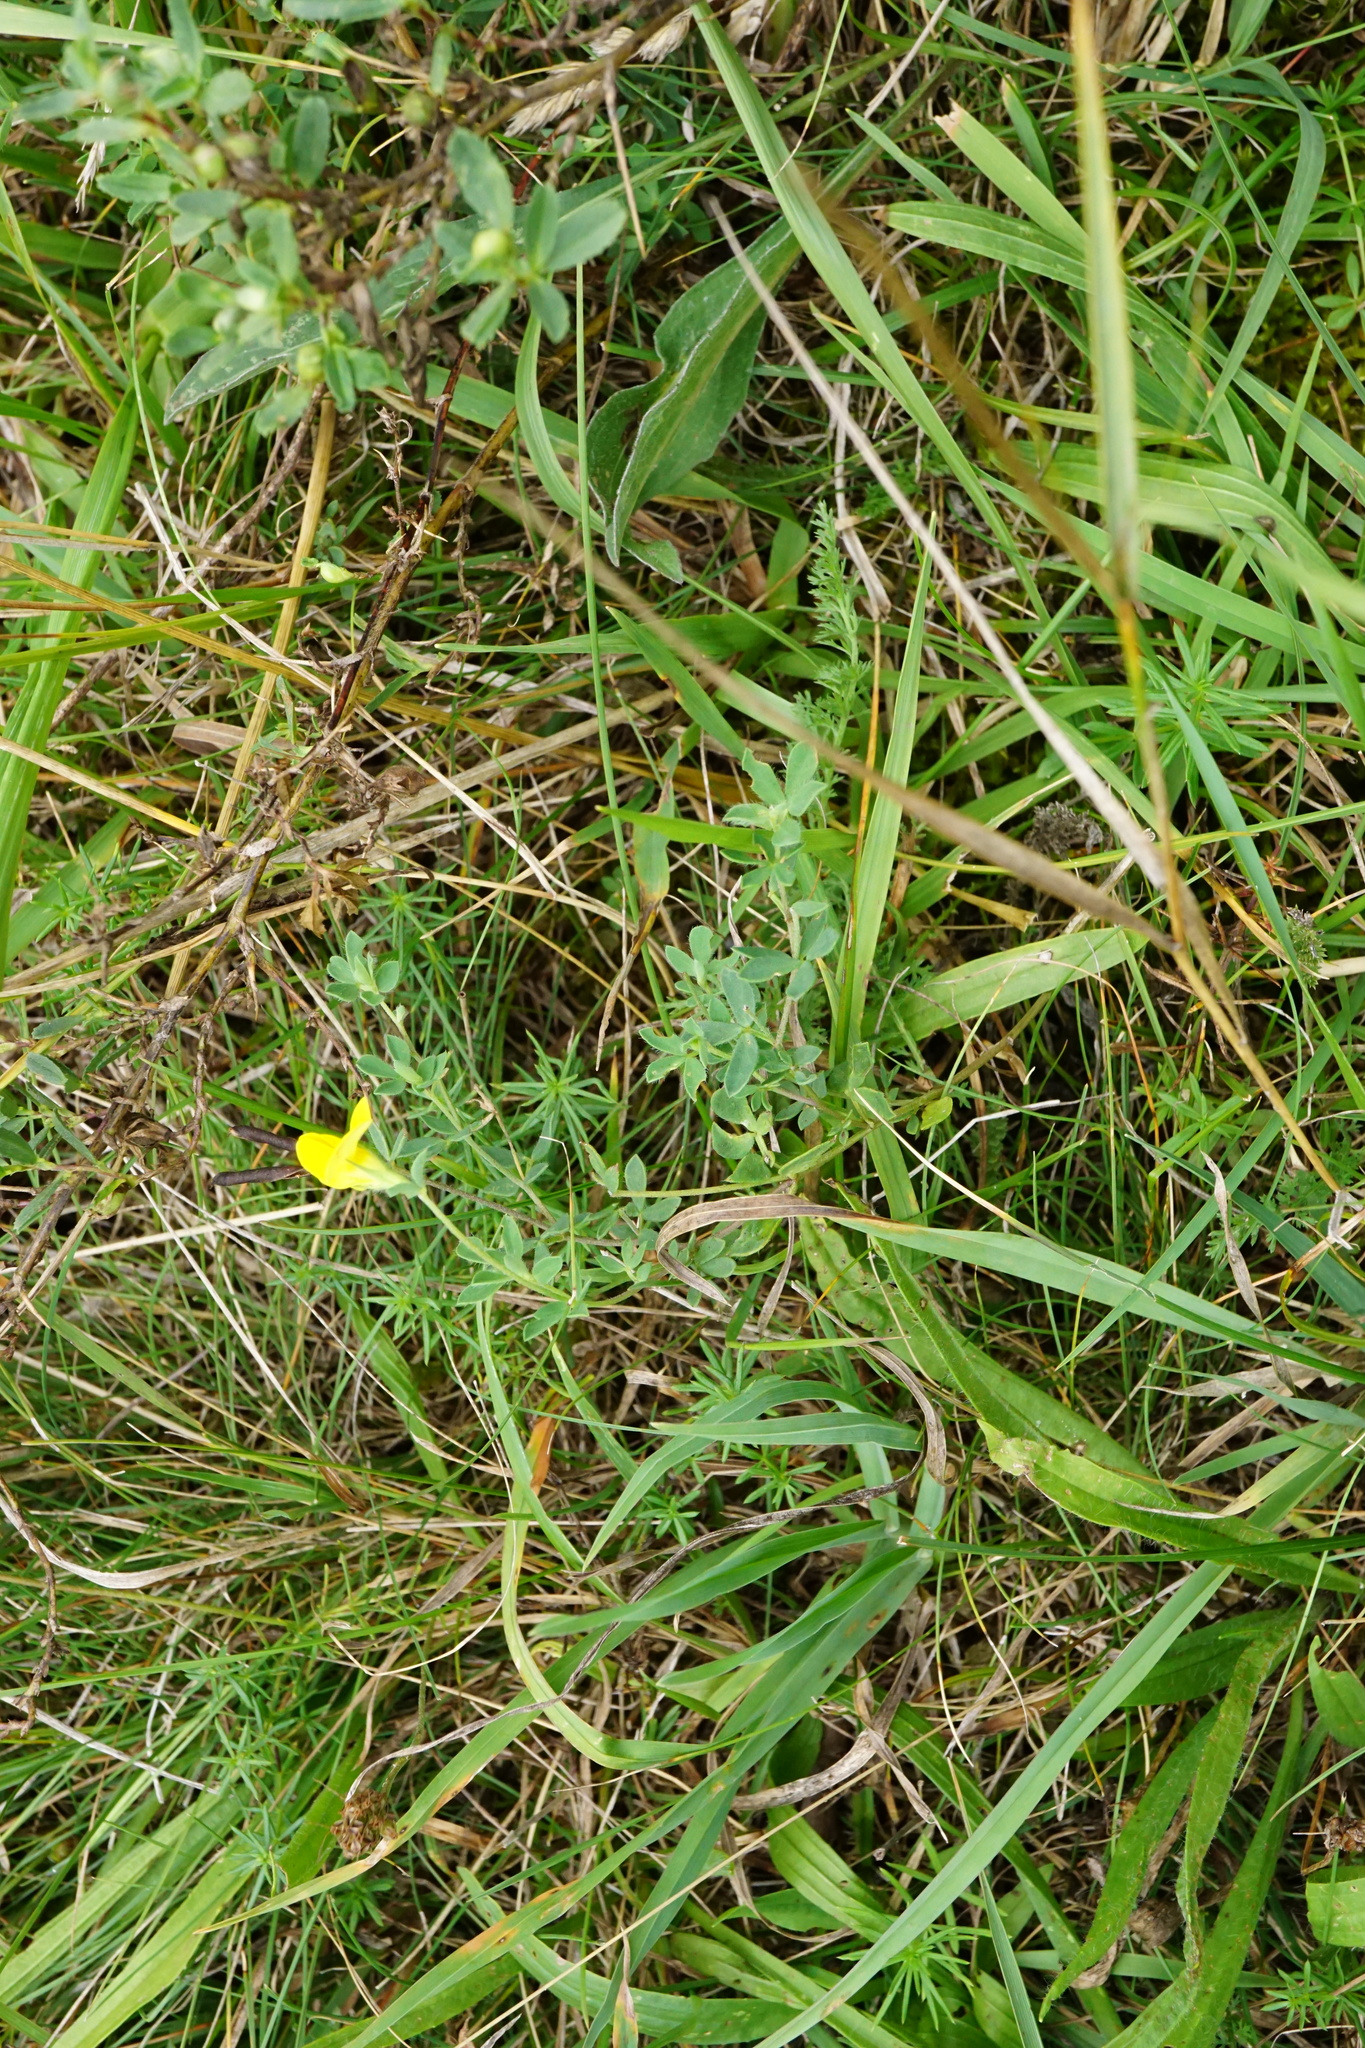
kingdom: Plantae
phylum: Tracheophyta
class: Magnoliopsida
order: Fabales
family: Fabaceae
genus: Lotus
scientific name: Lotus corniculatus
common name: Common bird's-foot-trefoil
